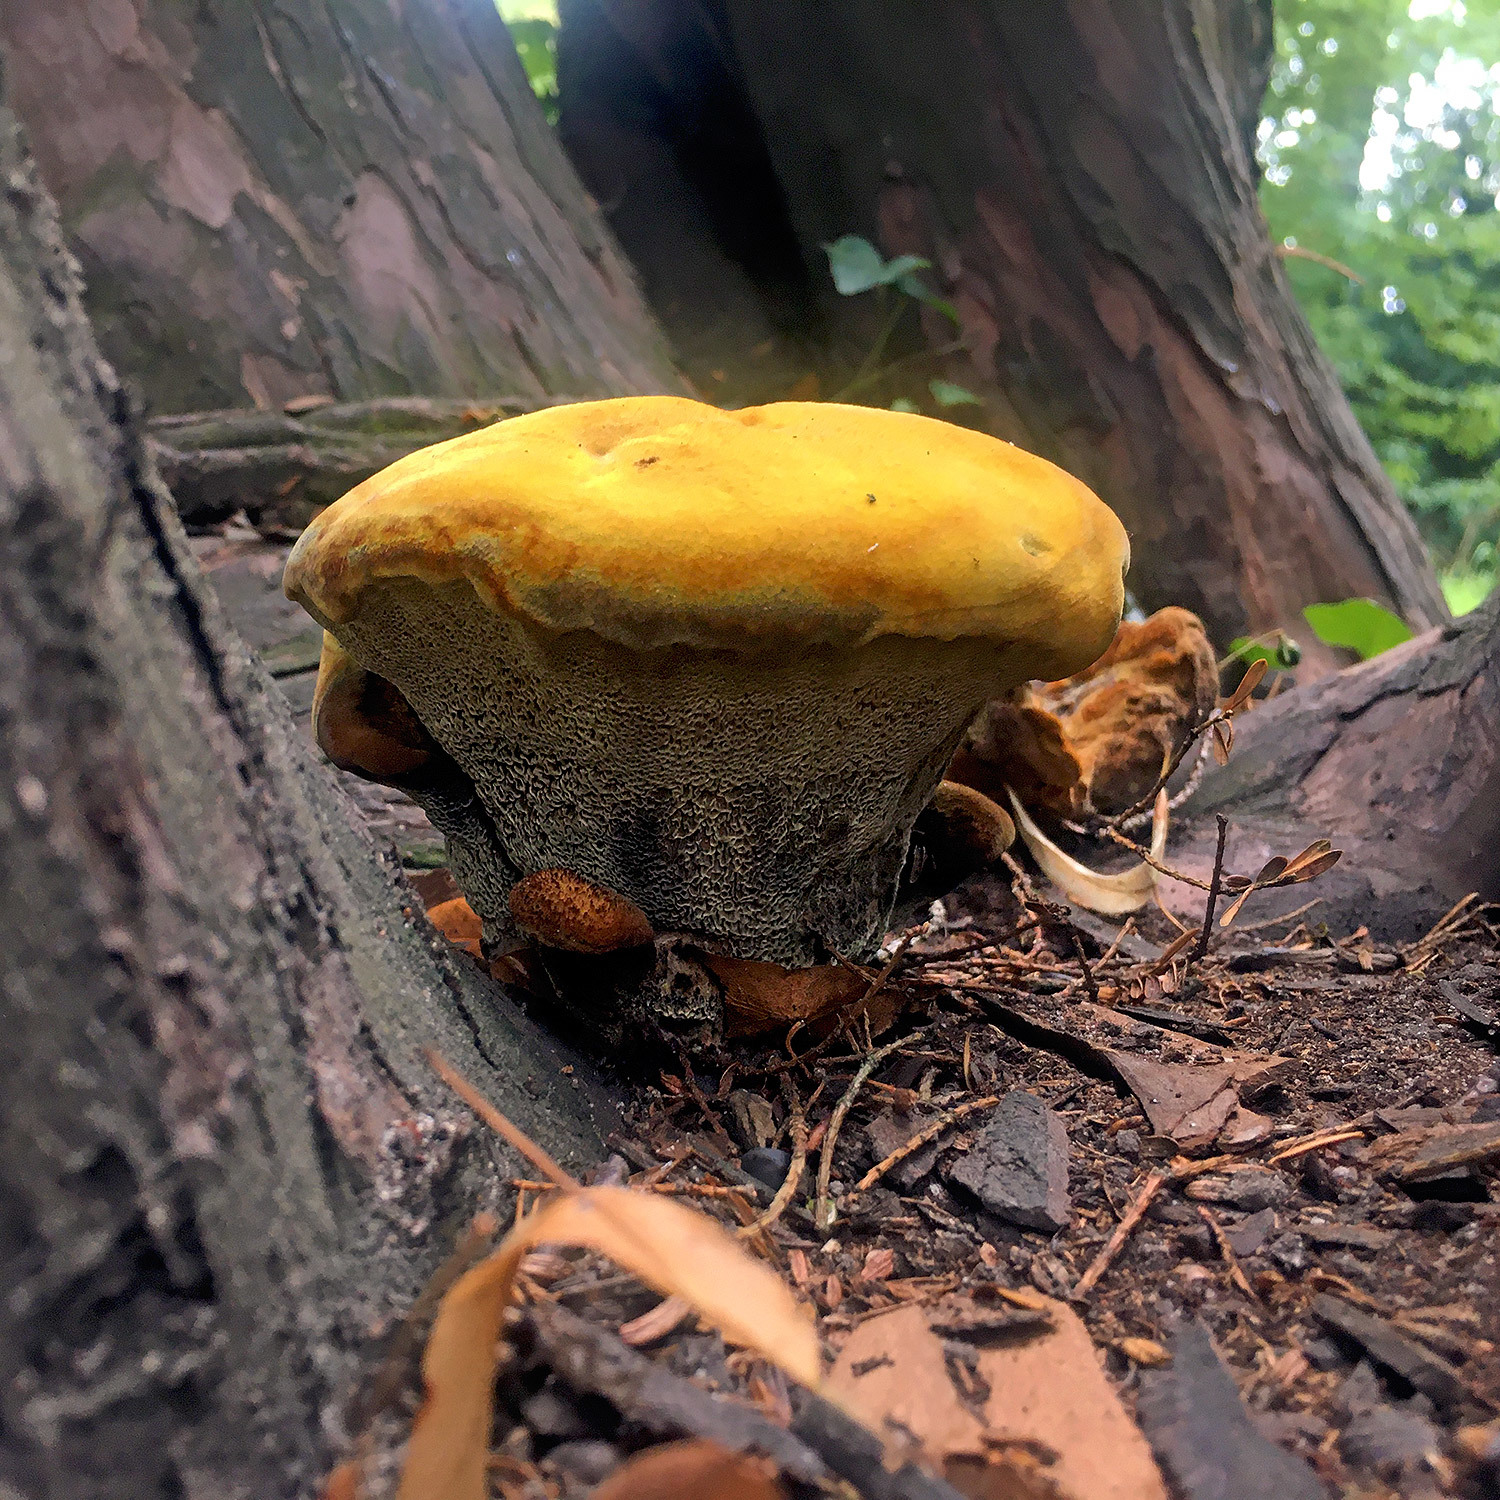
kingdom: Fungi
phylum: Basidiomycota
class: Agaricomycetes
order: Polyporales
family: Laetiporaceae
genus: Phaeolus
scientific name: Phaeolus schweinitzii
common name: Dyer's mazegill
